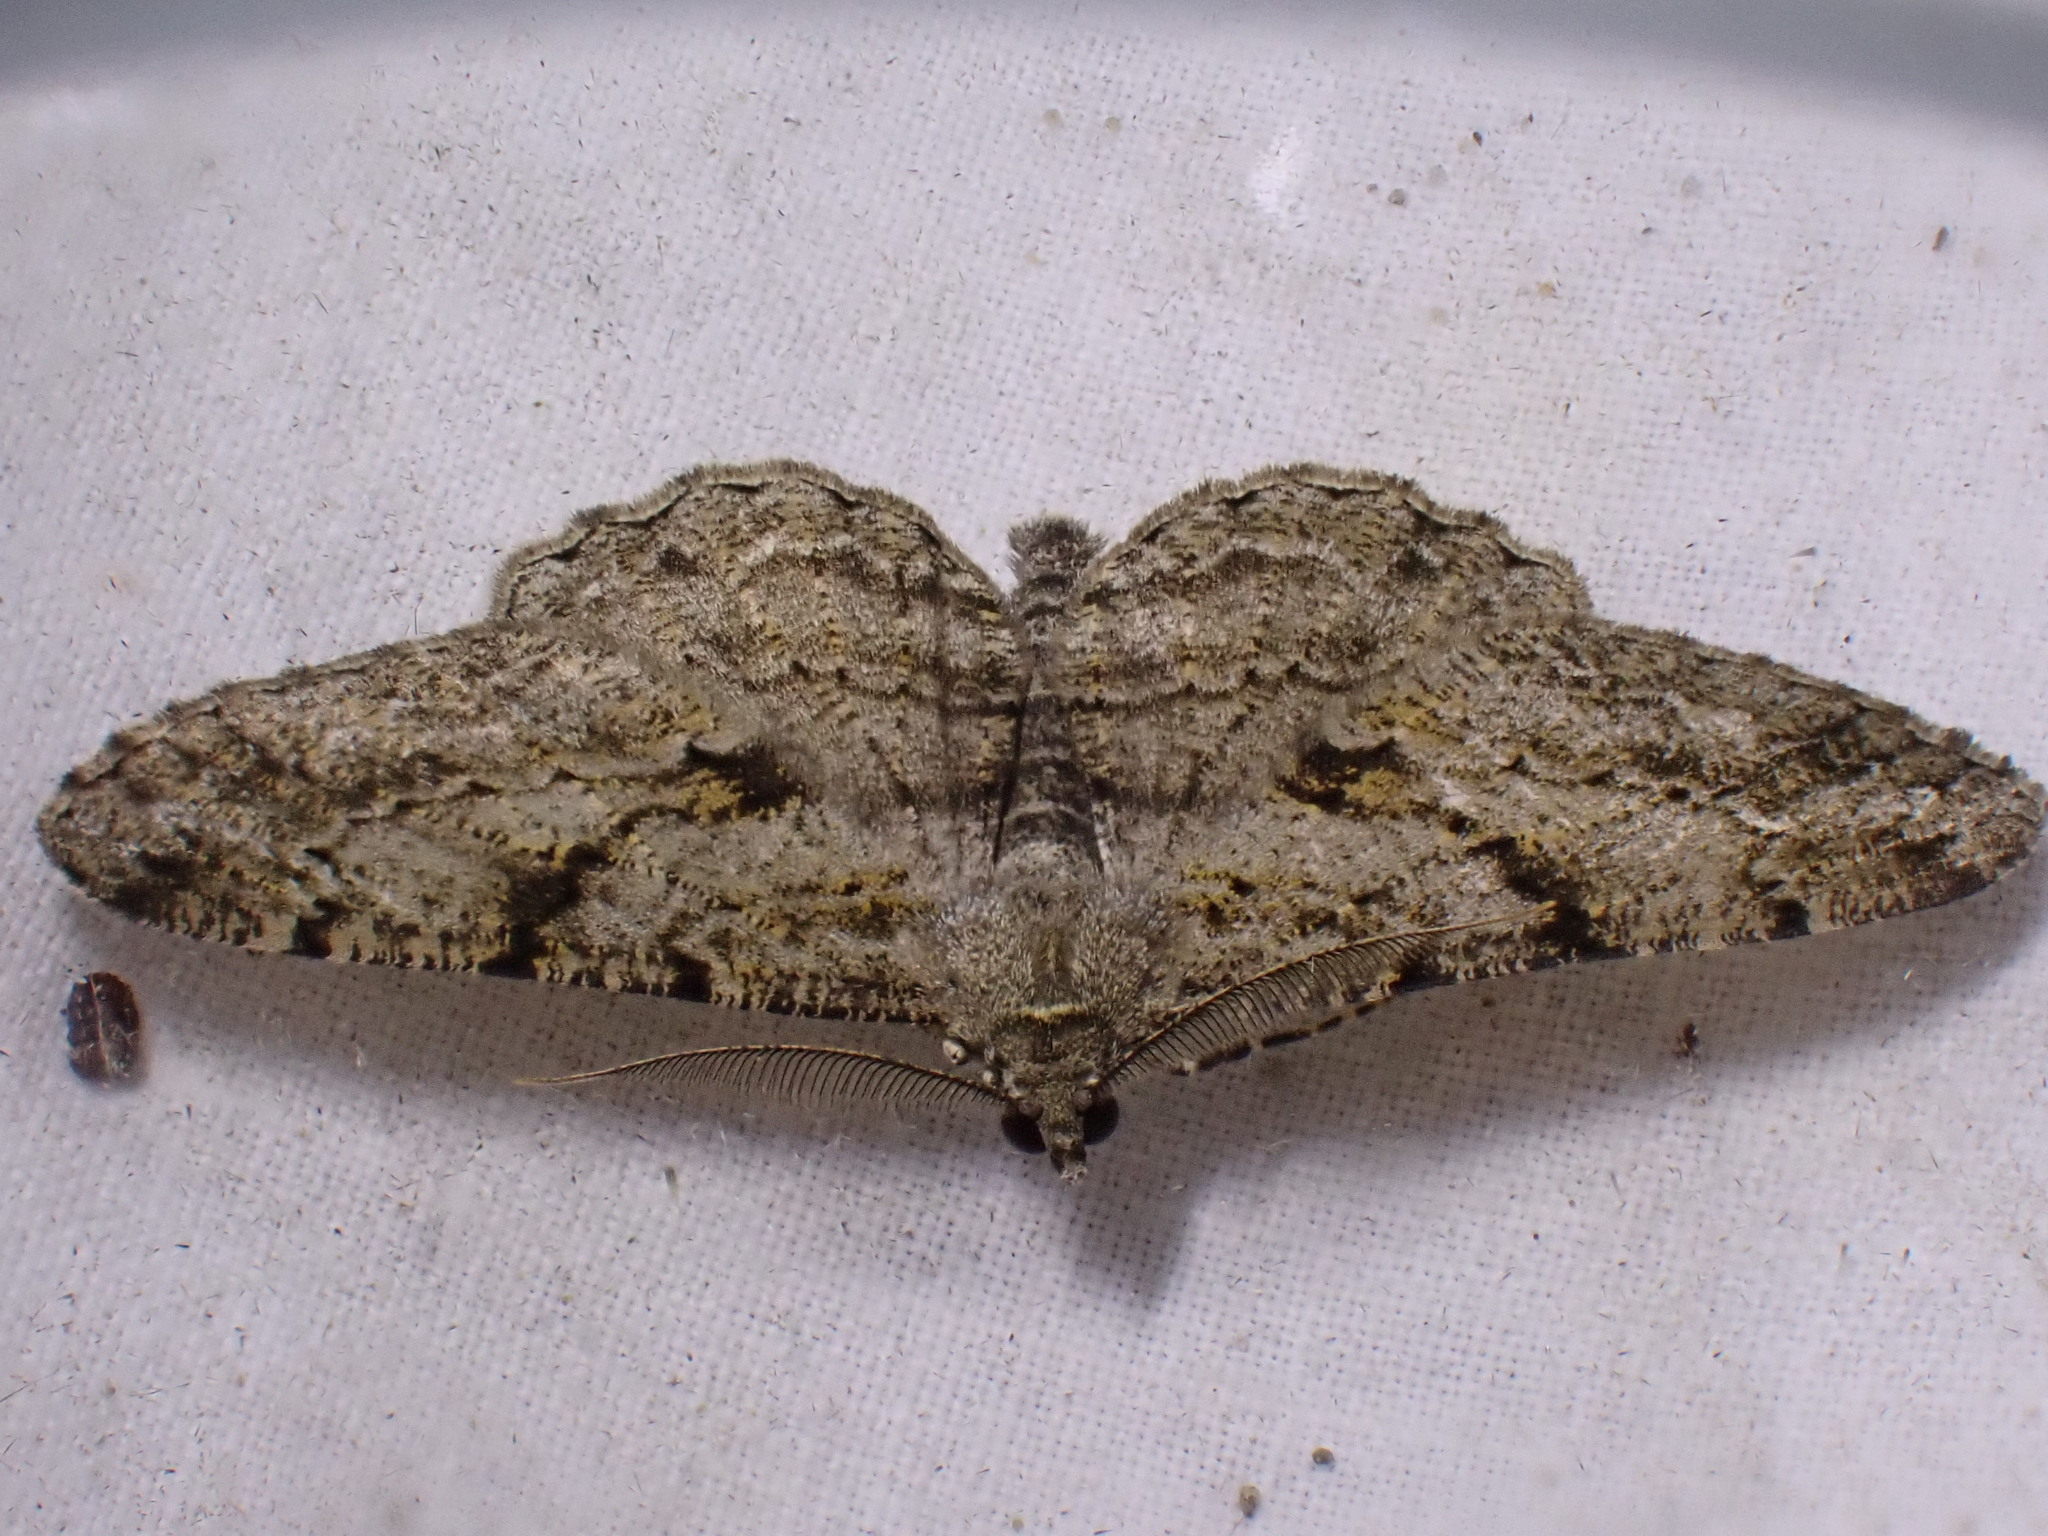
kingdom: Animalia
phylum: Arthropoda
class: Insecta
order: Lepidoptera
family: Geometridae
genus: Peribatodes
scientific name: Peribatodes rhomboidaria
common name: Willow beauty
